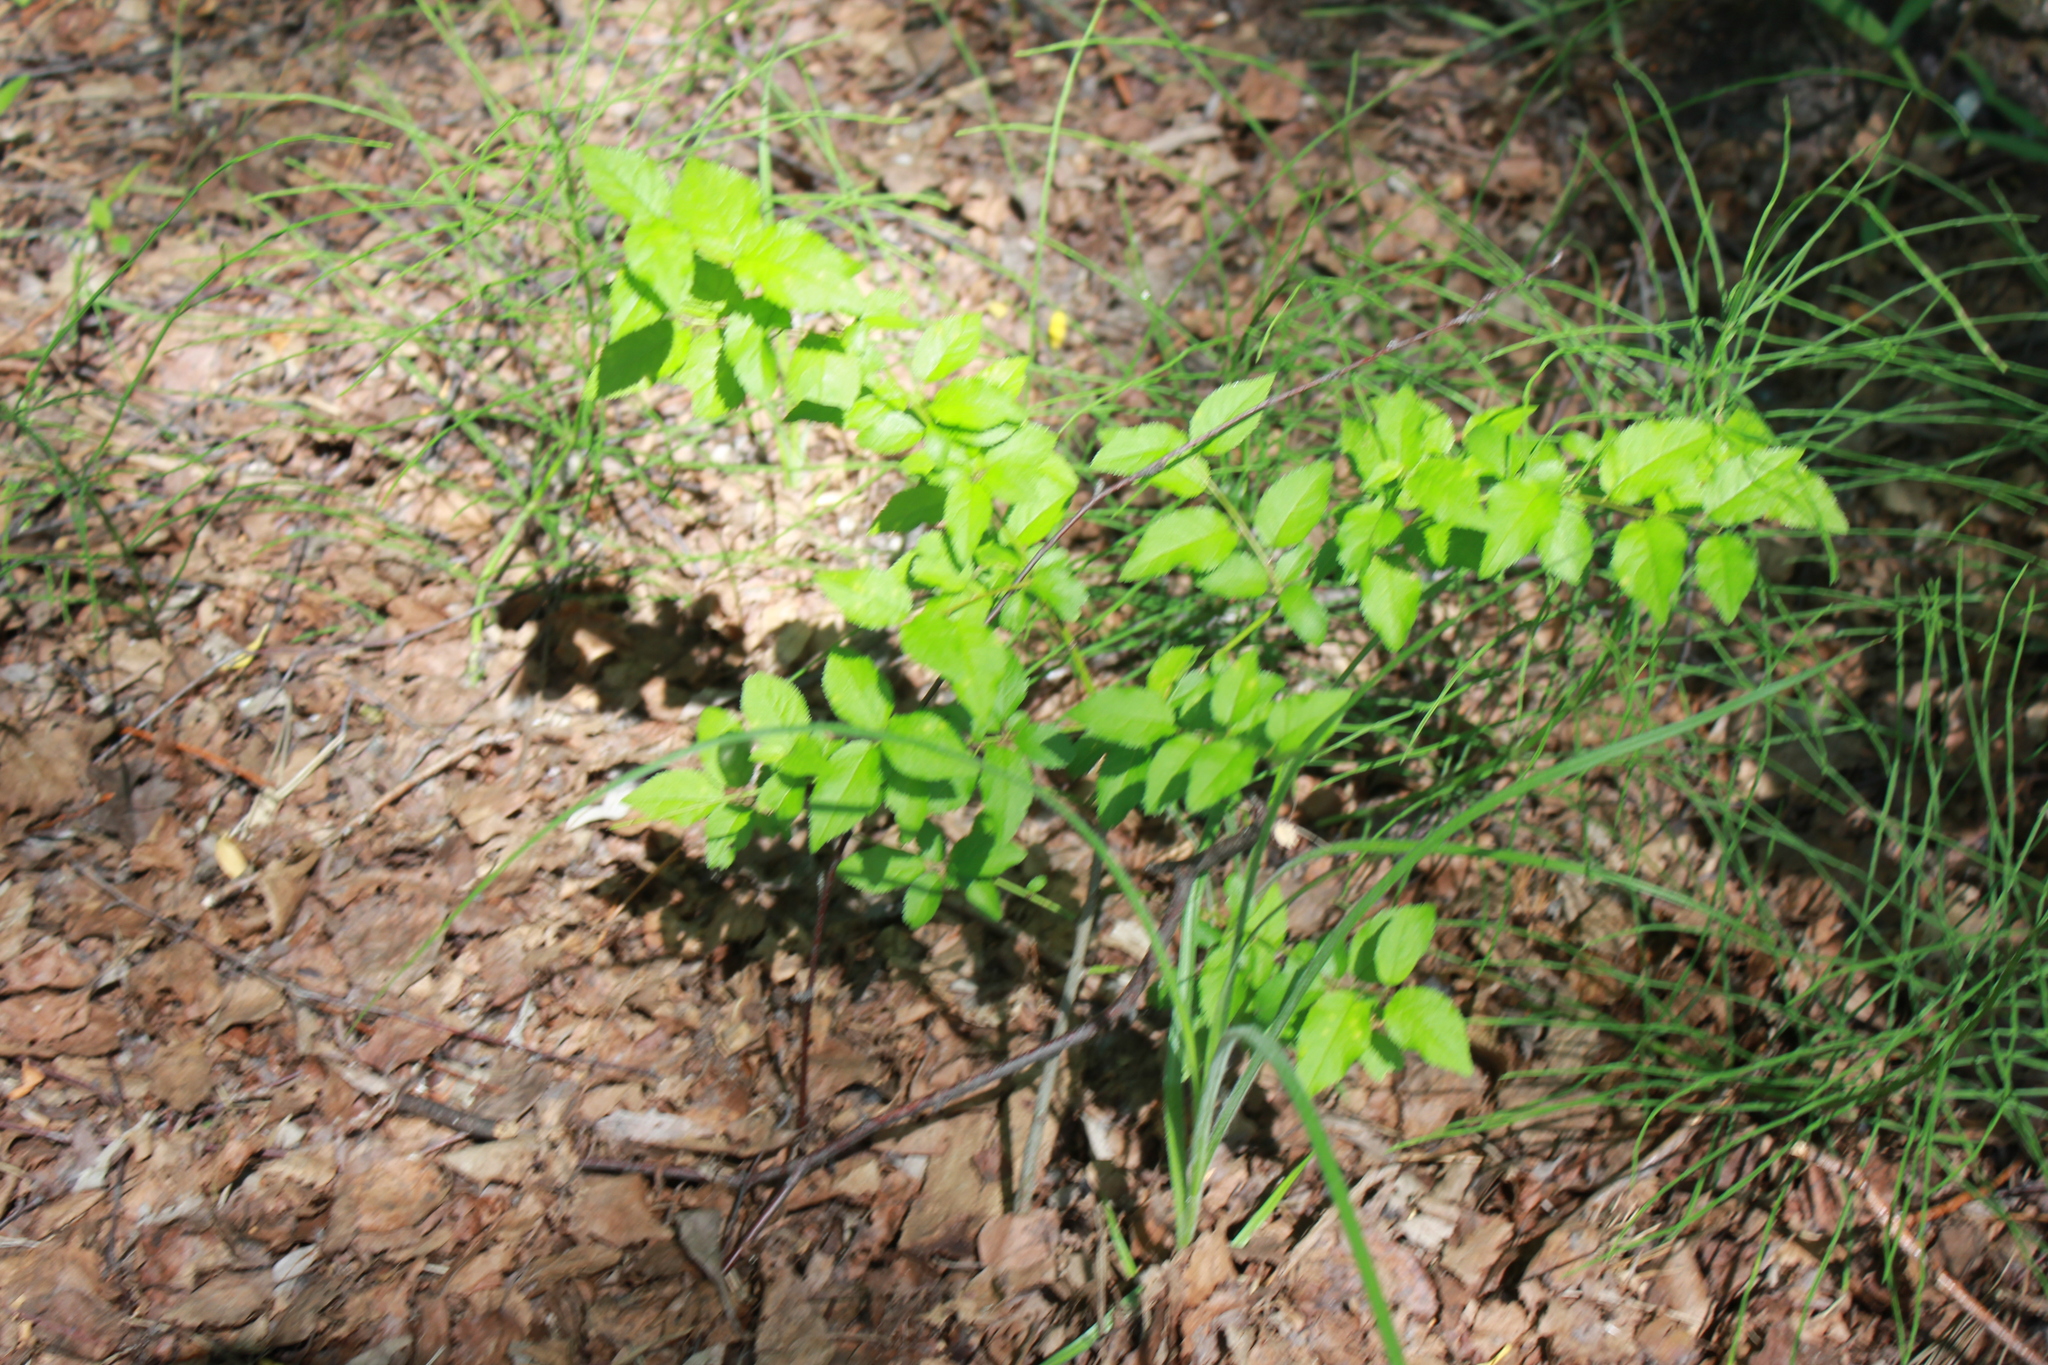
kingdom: Plantae
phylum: Tracheophyta
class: Magnoliopsida
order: Celastrales
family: Celastraceae
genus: Euonymus
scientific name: Euonymus verrucosus
